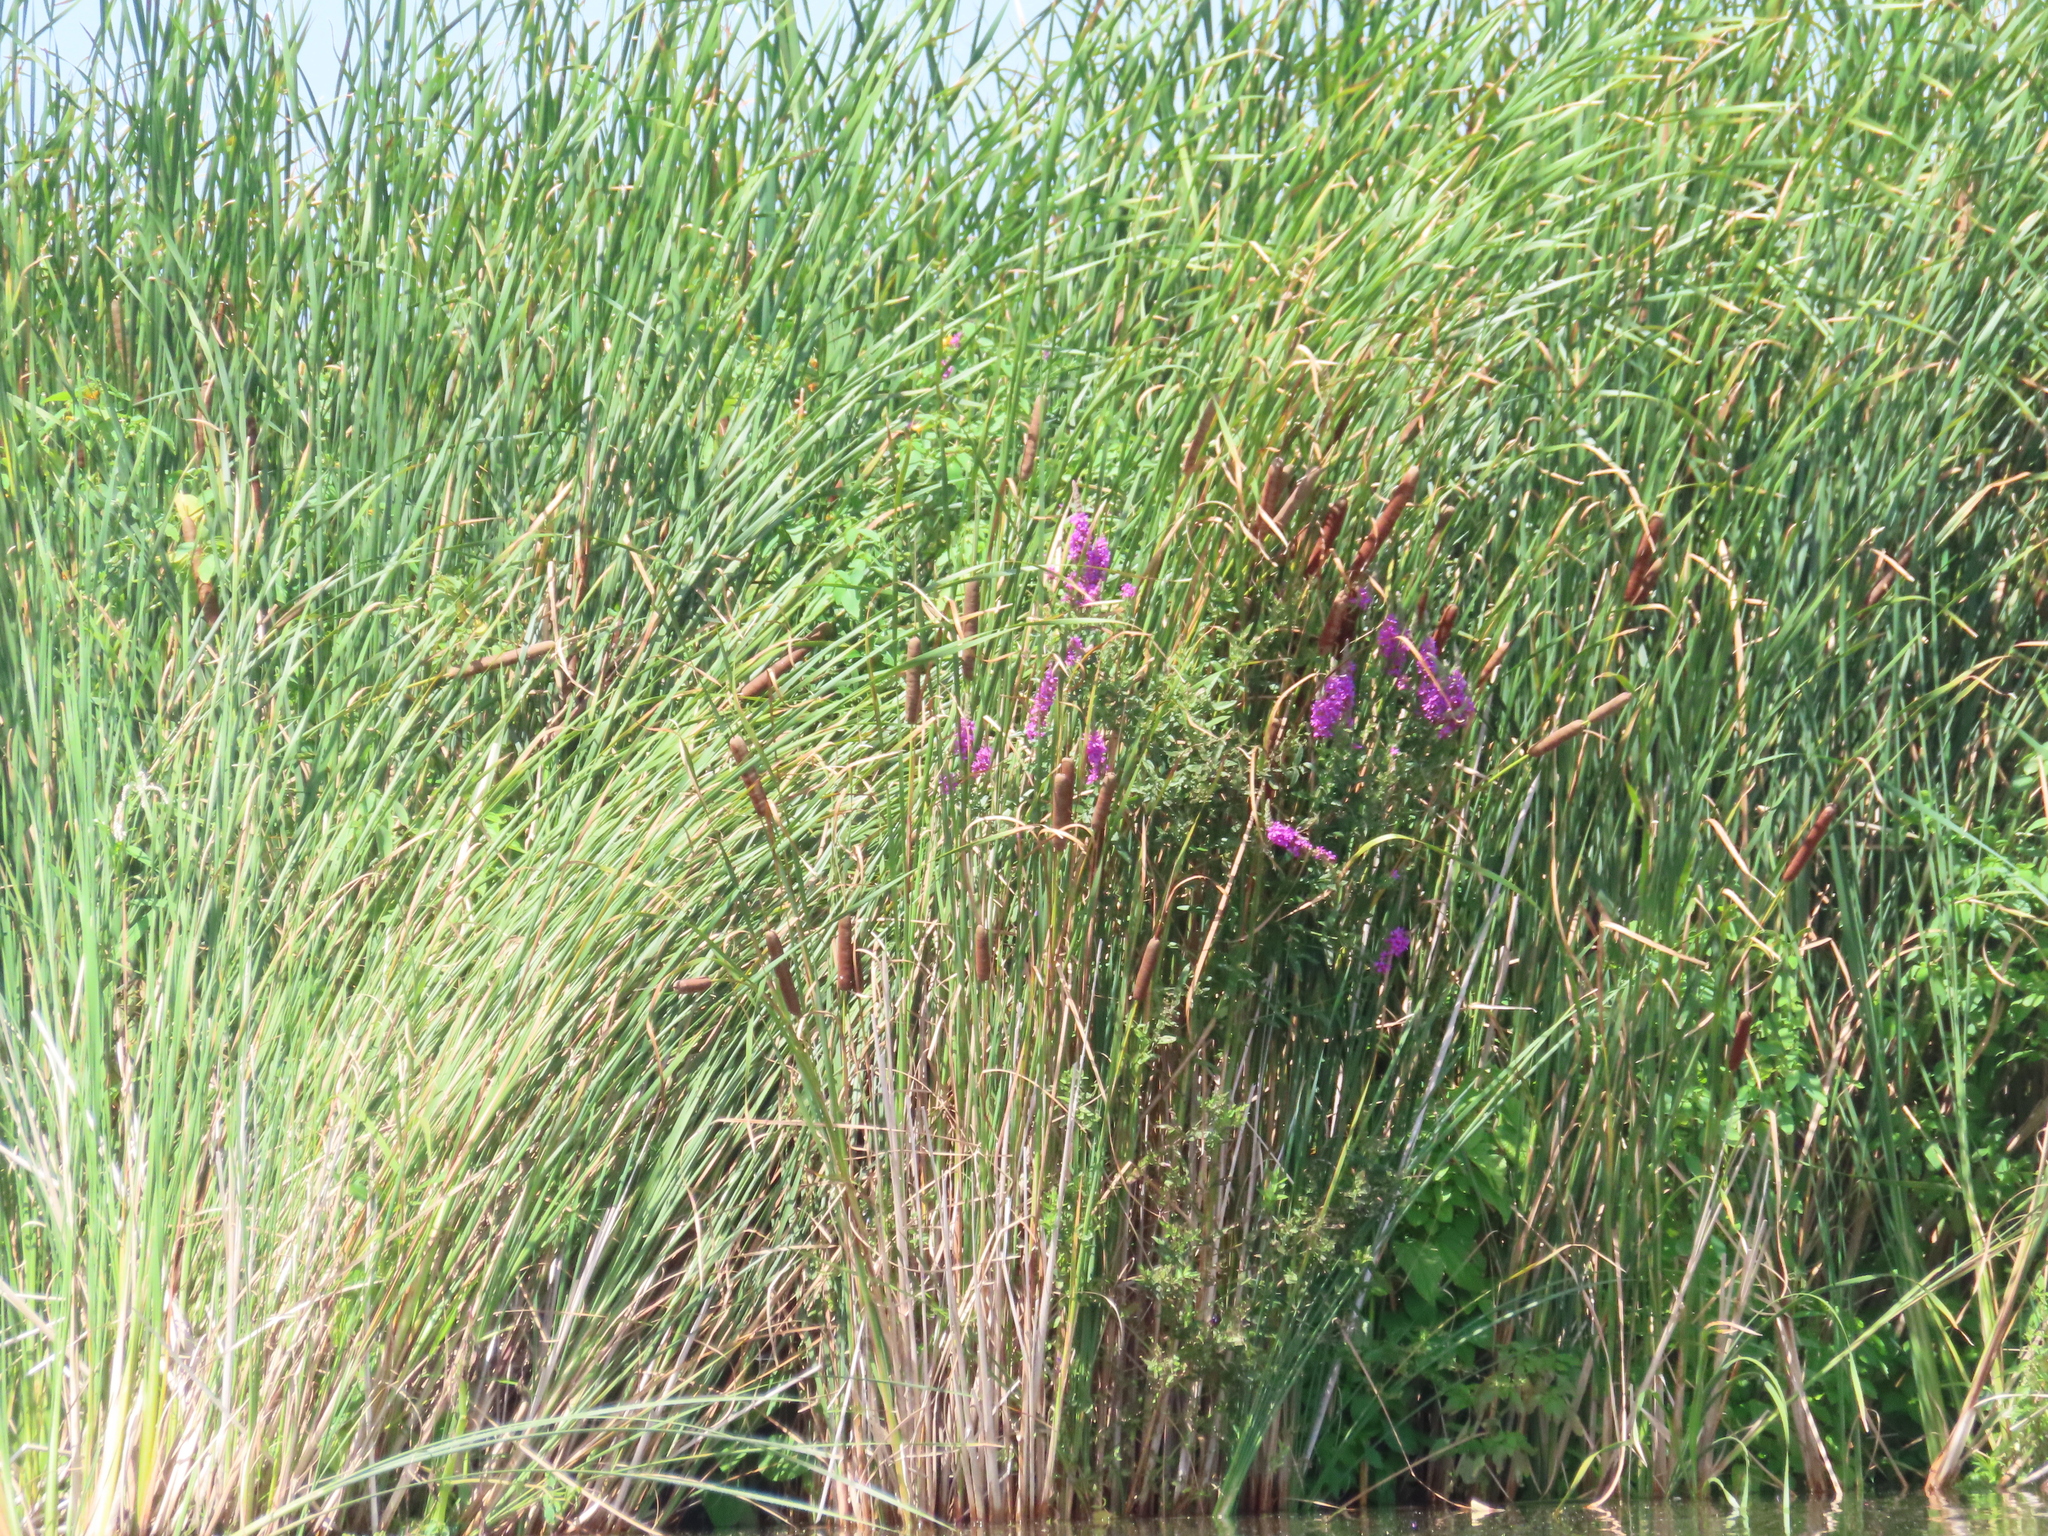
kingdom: Plantae
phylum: Tracheophyta
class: Magnoliopsida
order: Myrtales
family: Lythraceae
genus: Lythrum
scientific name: Lythrum salicaria
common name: Purple loosestrife
